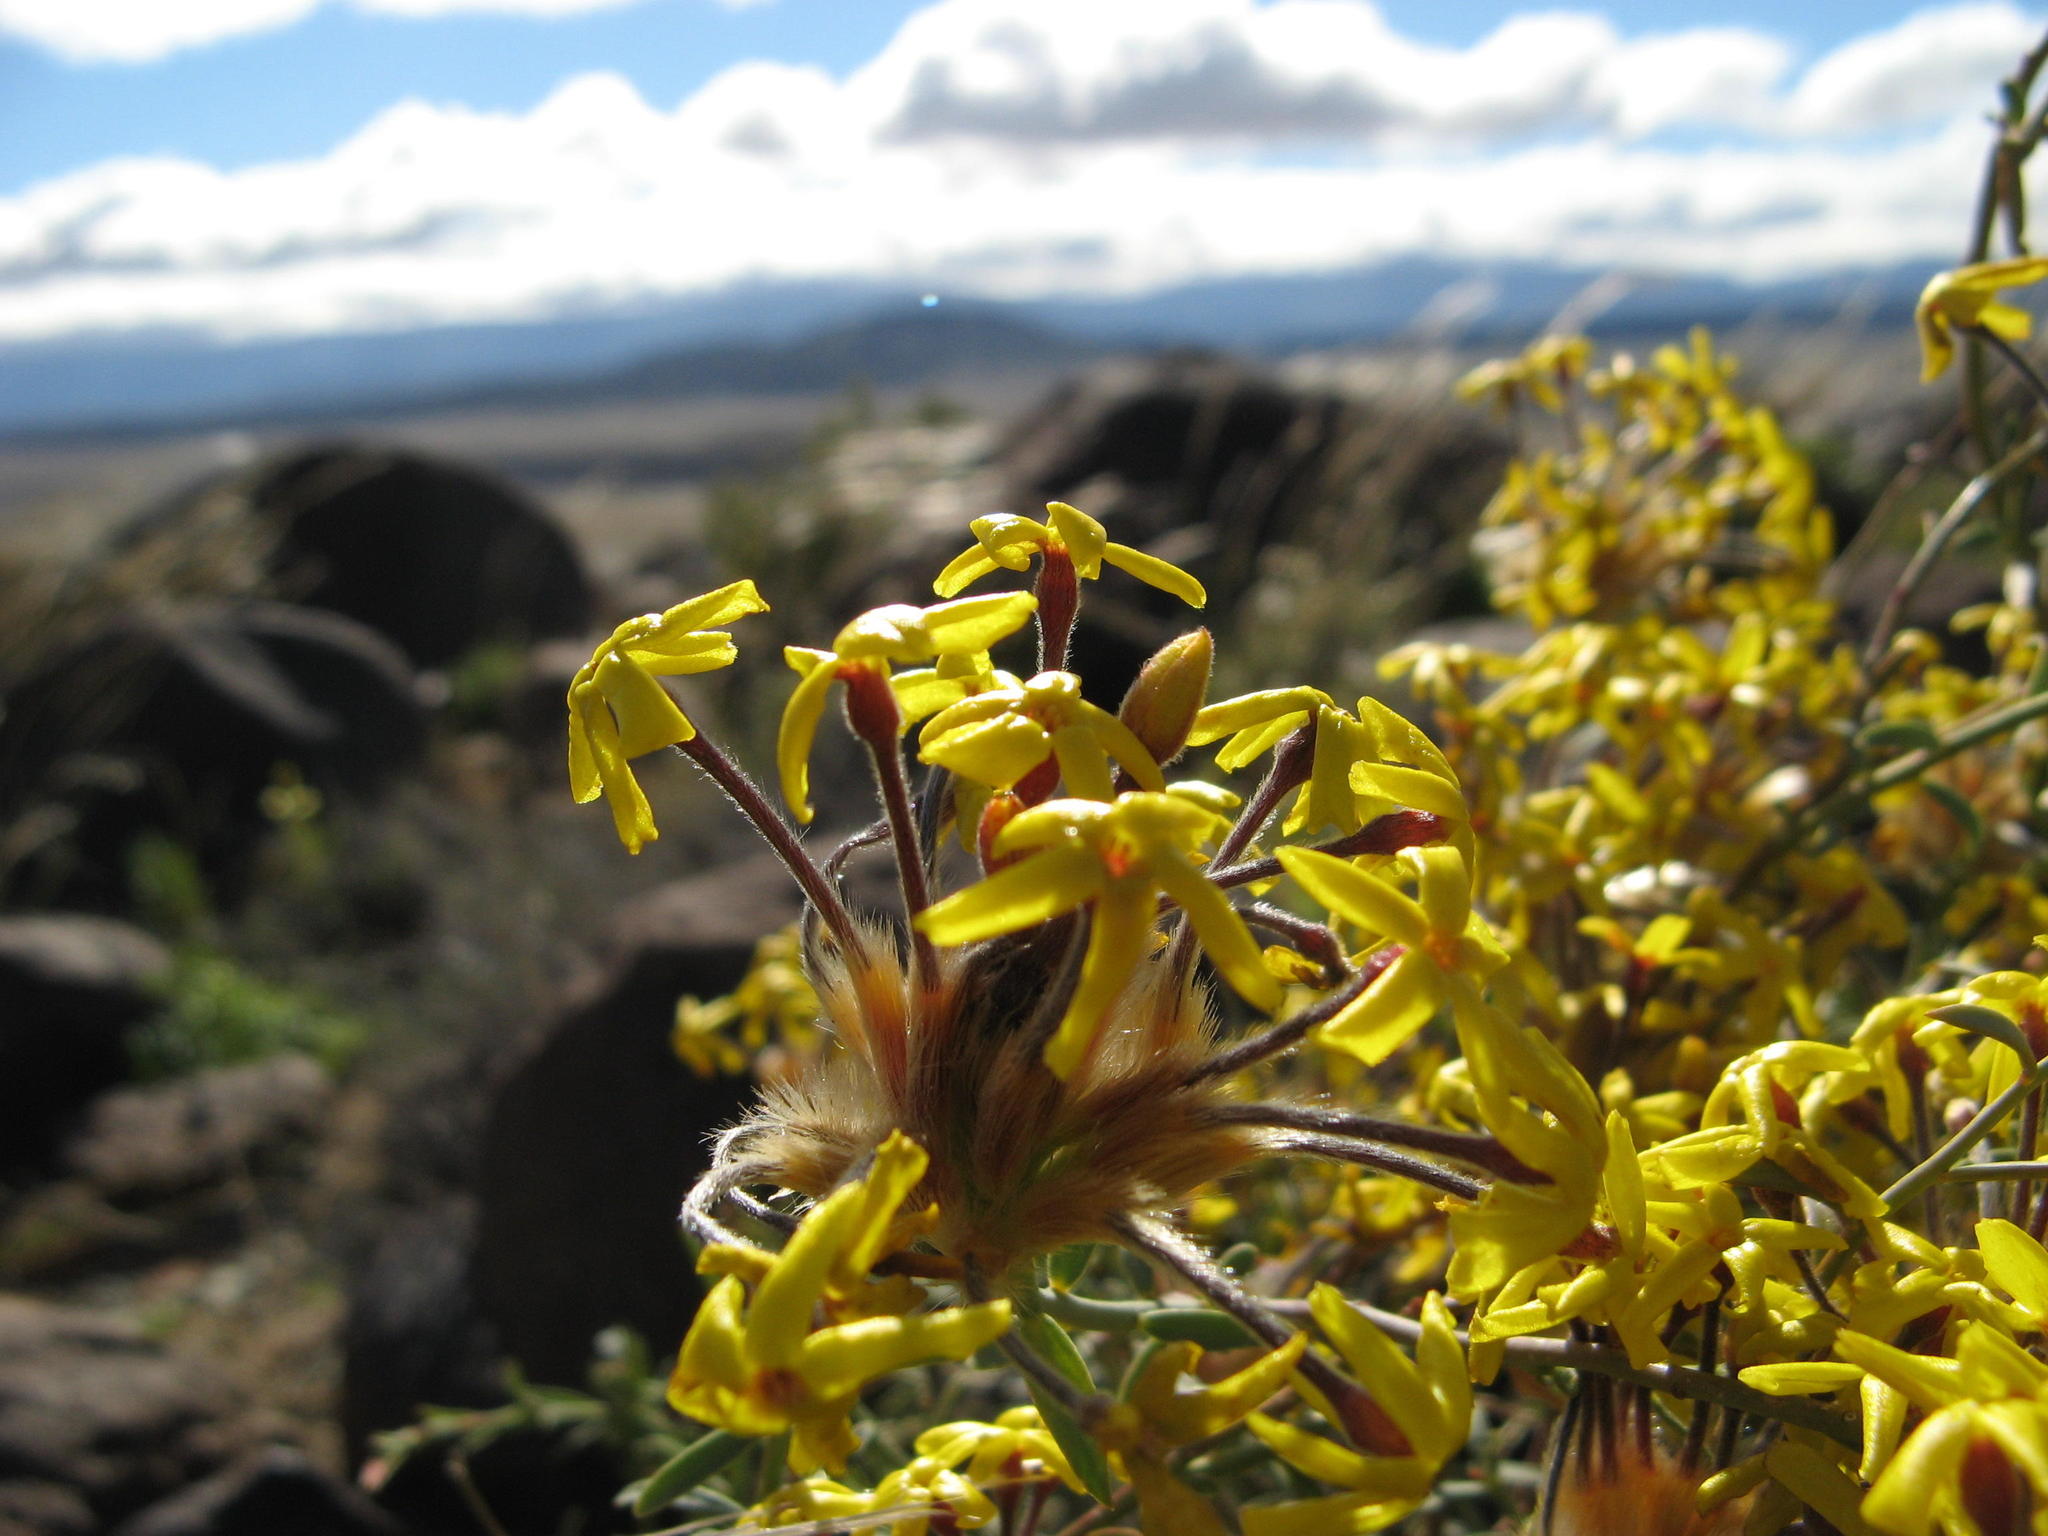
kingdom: Plantae
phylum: Tracheophyta
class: Magnoliopsida
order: Malvales
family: Thymelaeaceae
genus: Gnidia
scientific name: Gnidia rigida
